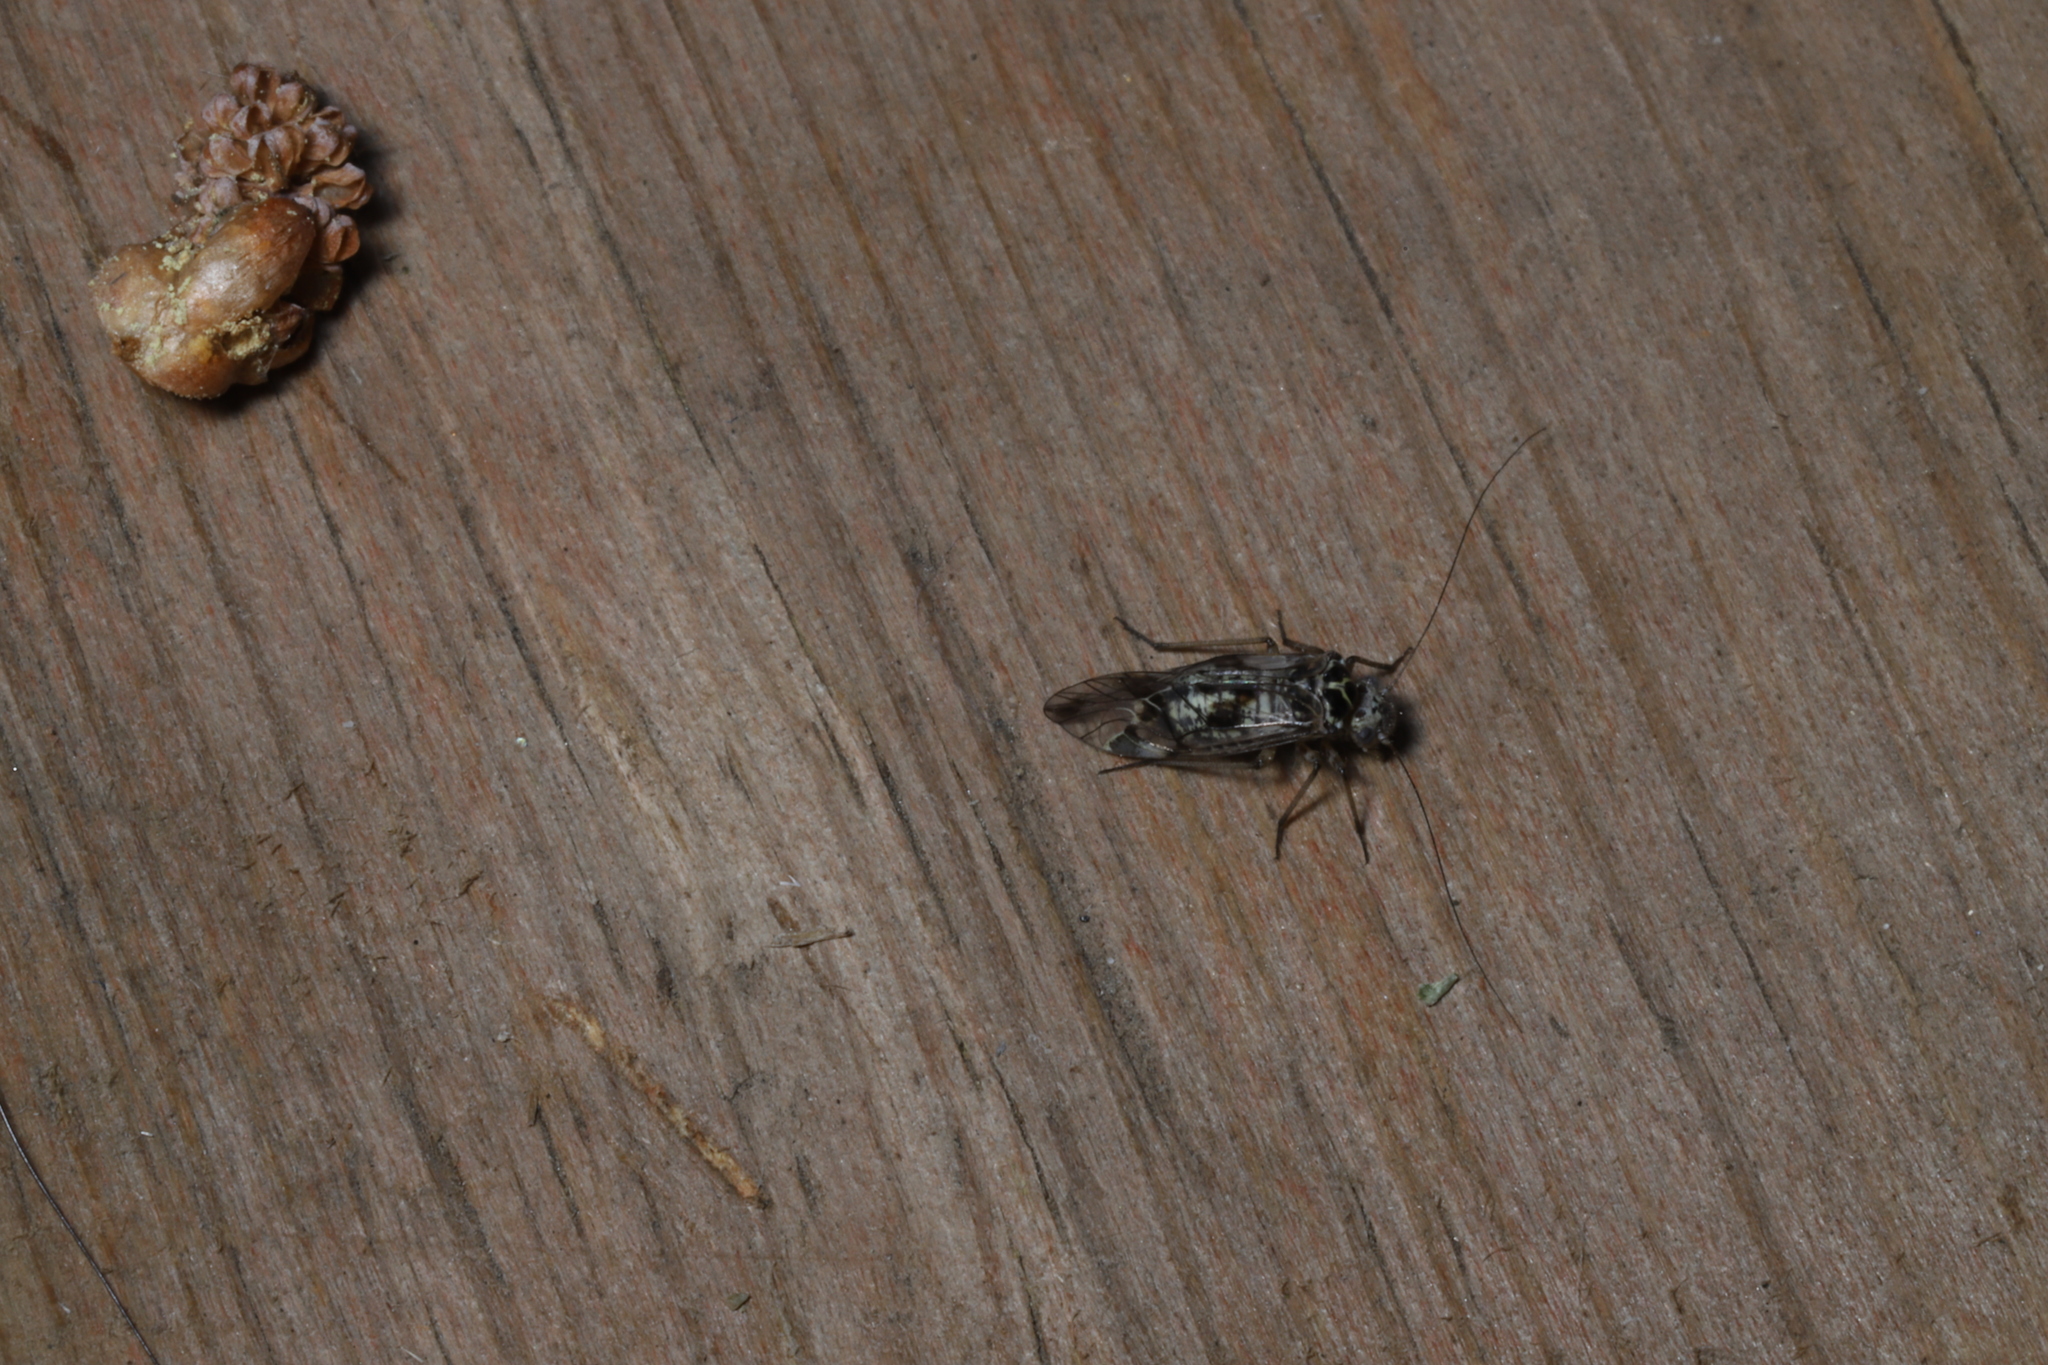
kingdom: Animalia
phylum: Arthropoda
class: Insecta
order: Psocodea
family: Psocidae
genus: Metylophorus
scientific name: Metylophorus novaescotiae
